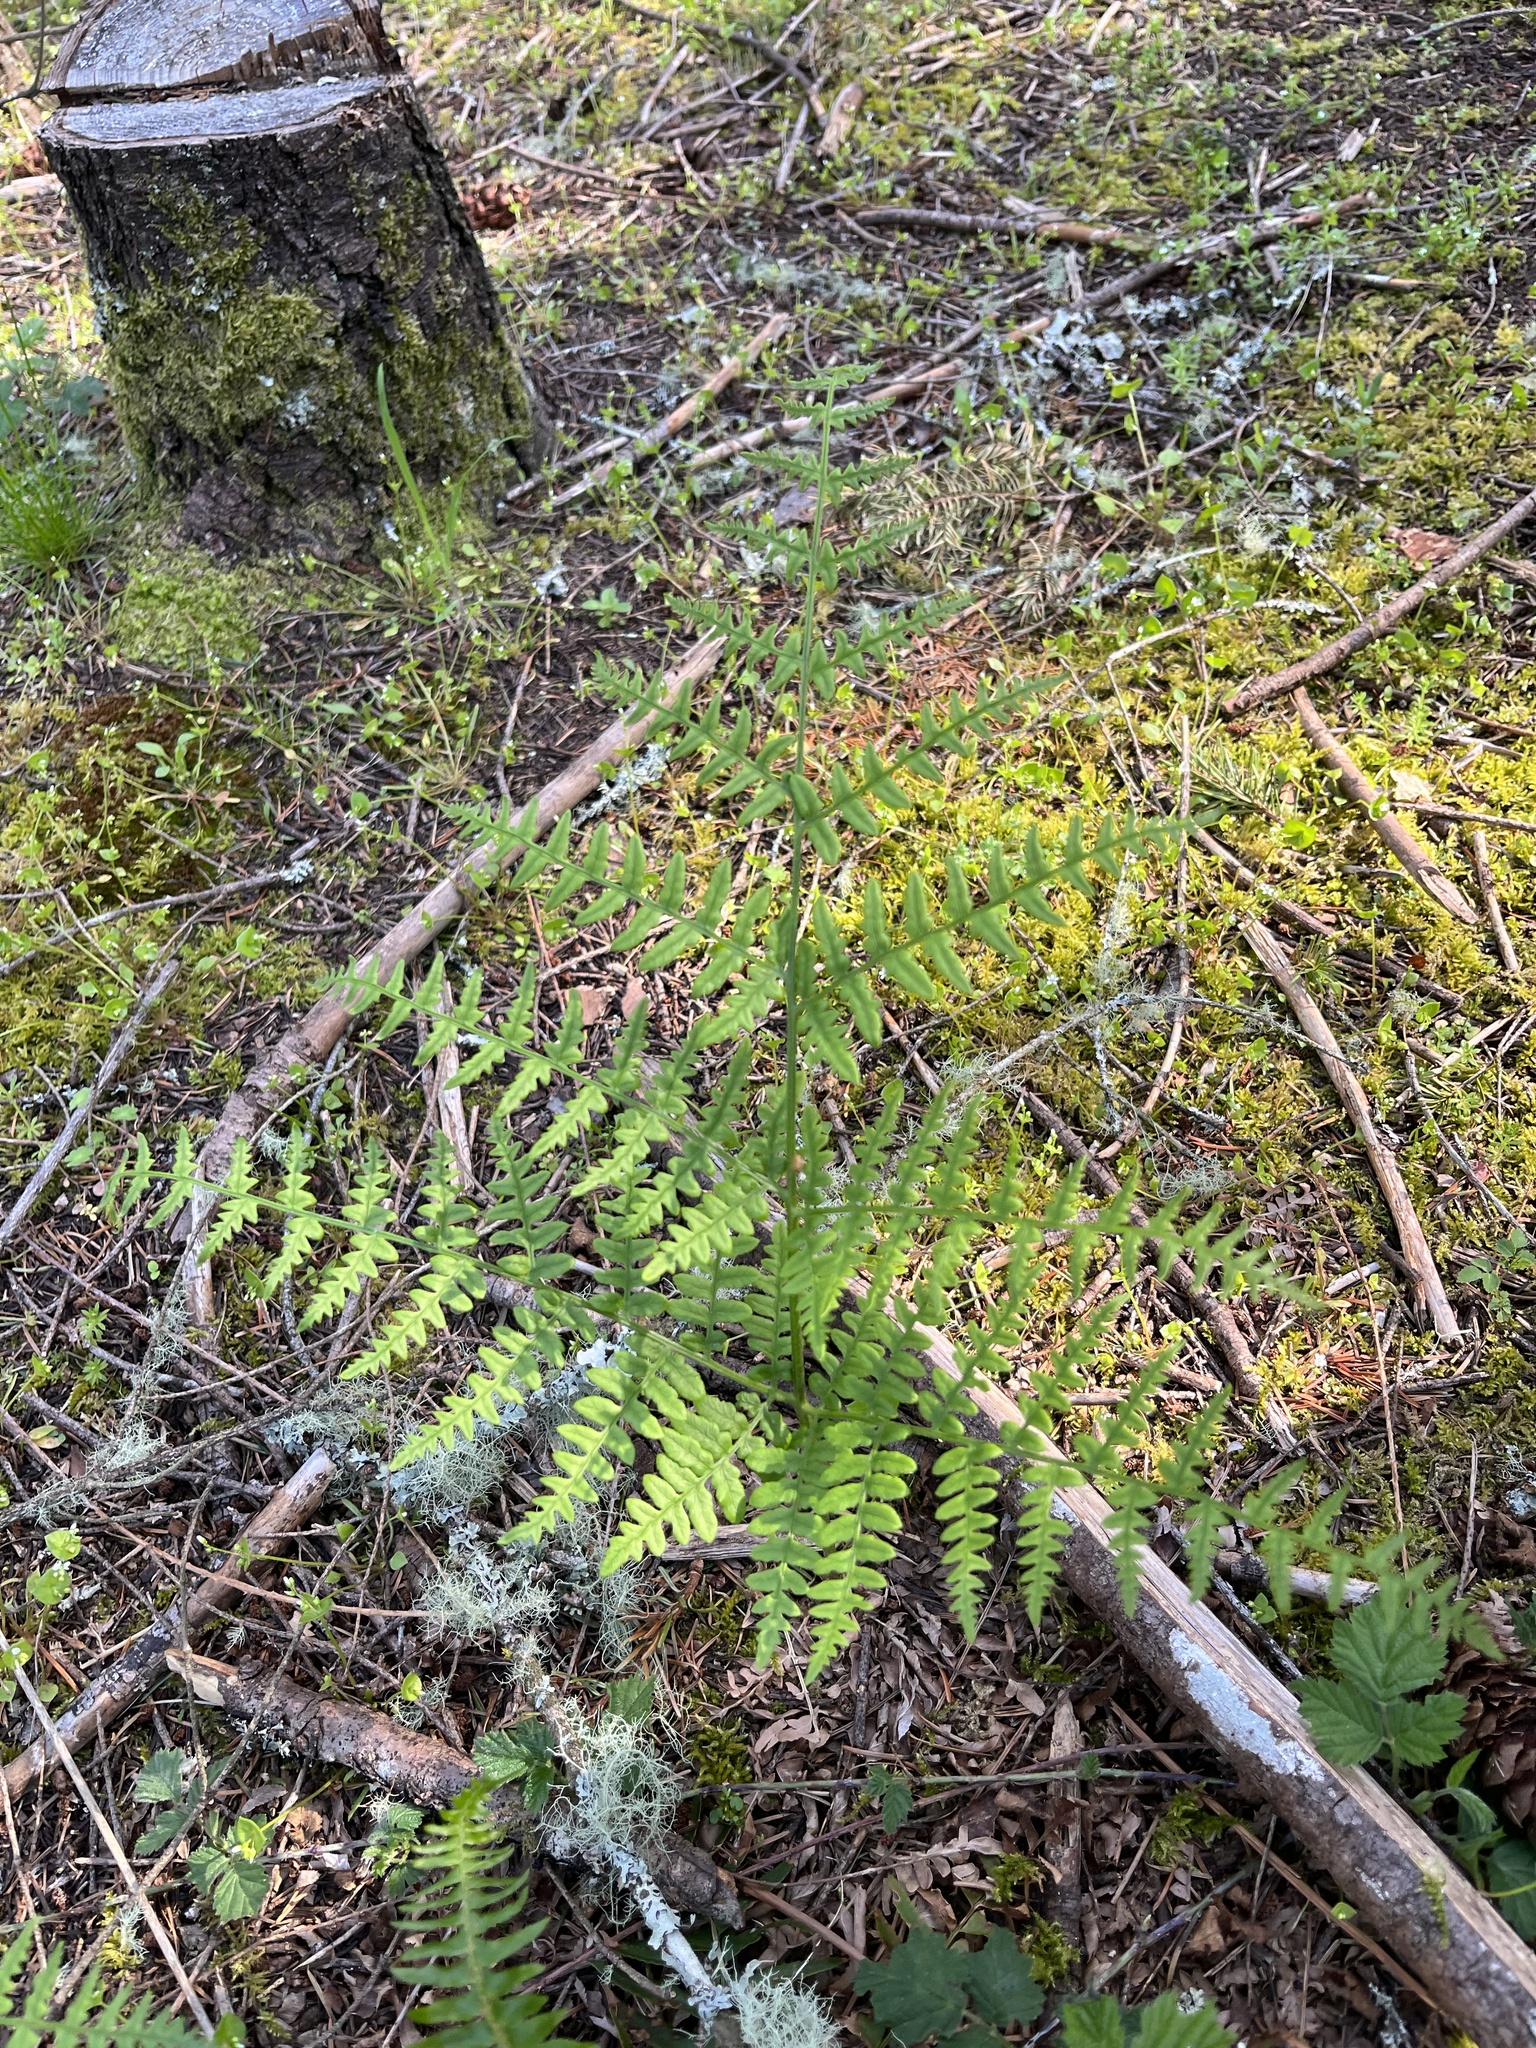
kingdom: Plantae
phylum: Tracheophyta
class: Polypodiopsida
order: Polypodiales
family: Dennstaedtiaceae
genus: Pteridium
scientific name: Pteridium aquilinum
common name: Bracken
